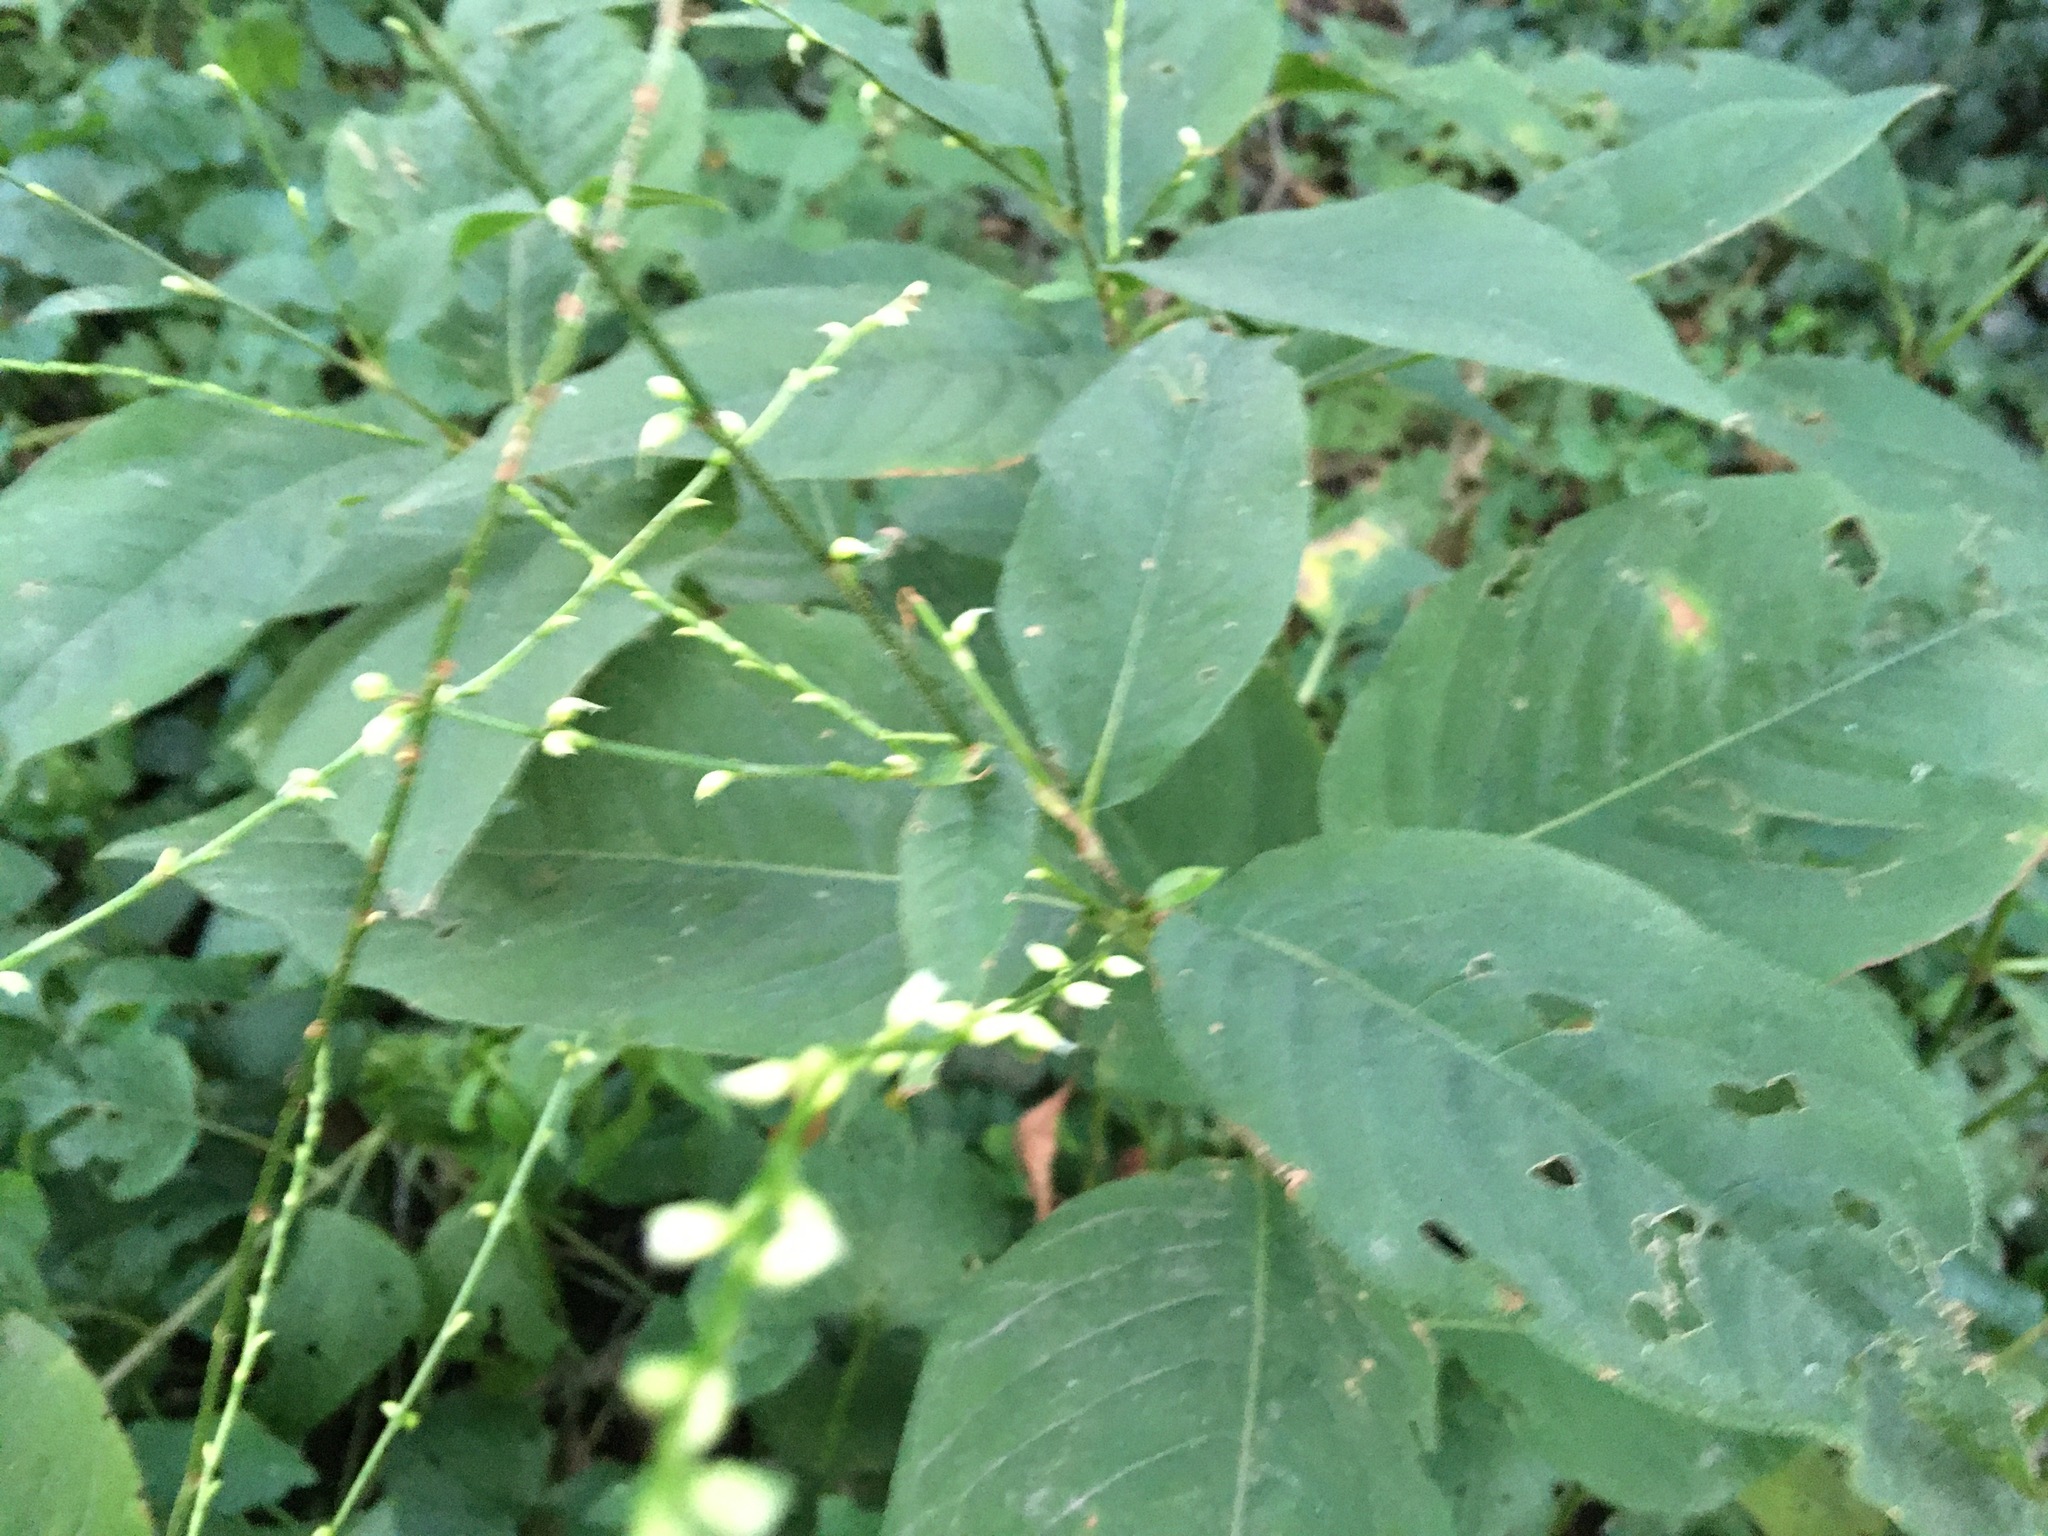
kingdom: Plantae
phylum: Tracheophyta
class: Magnoliopsida
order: Caryophyllales
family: Polygonaceae
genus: Persicaria
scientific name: Persicaria virginiana
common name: Jumpseed
